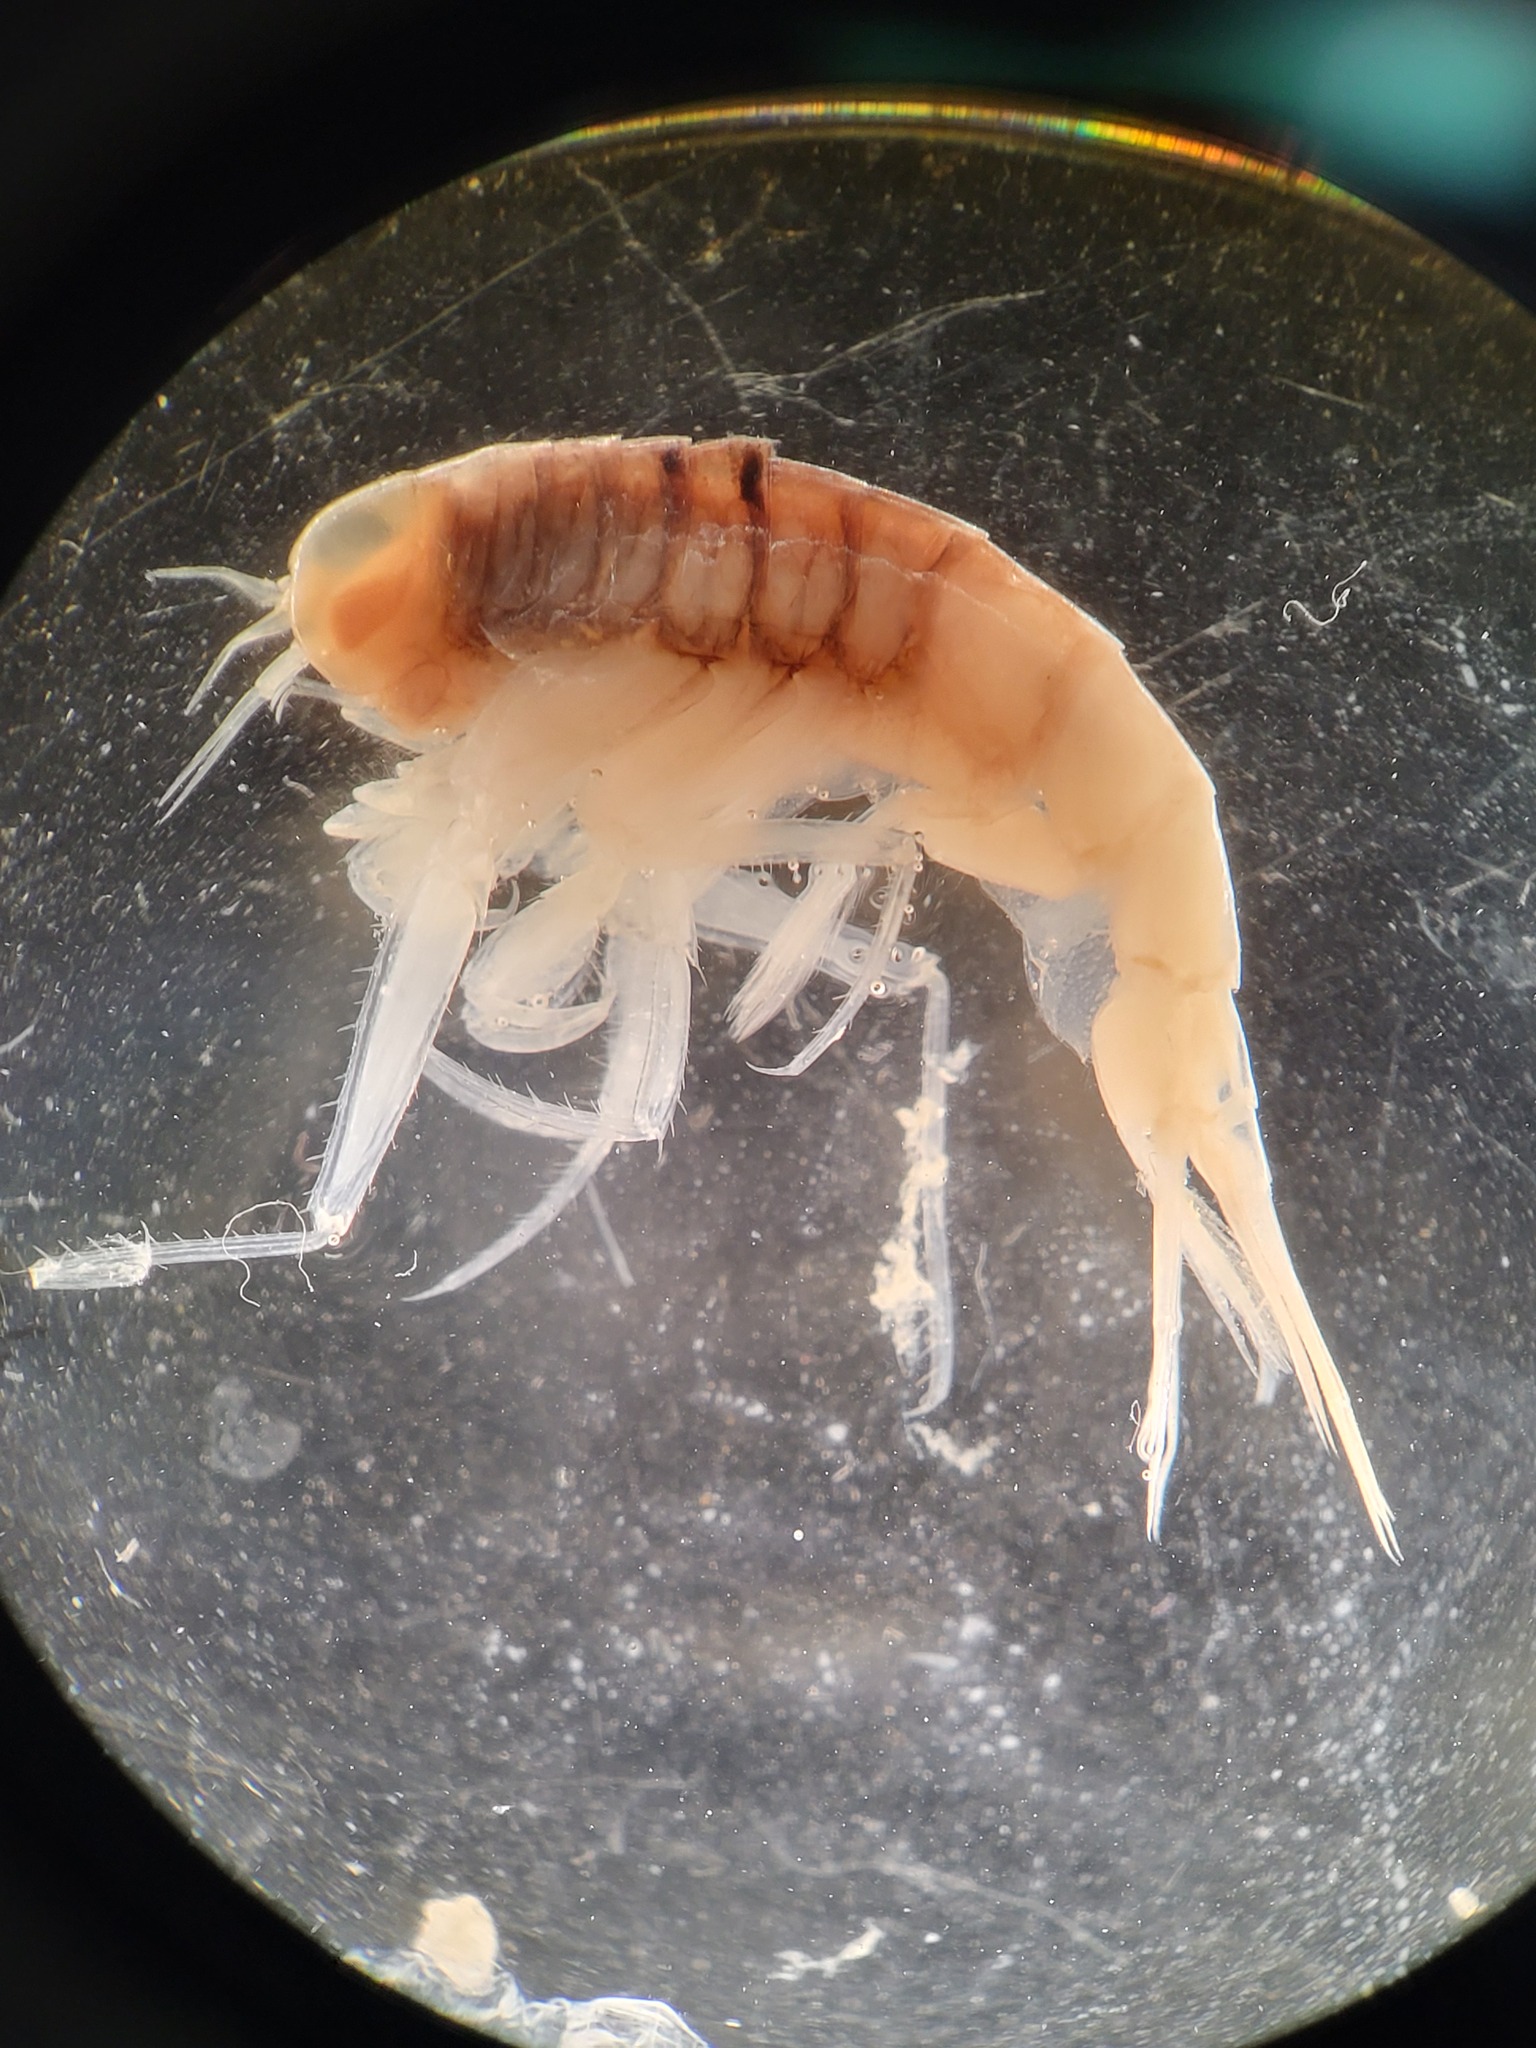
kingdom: Animalia
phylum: Arthropoda
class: Malacostraca
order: Amphipoda
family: Hyperiidae
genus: Themisto
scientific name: Themisto libellula
